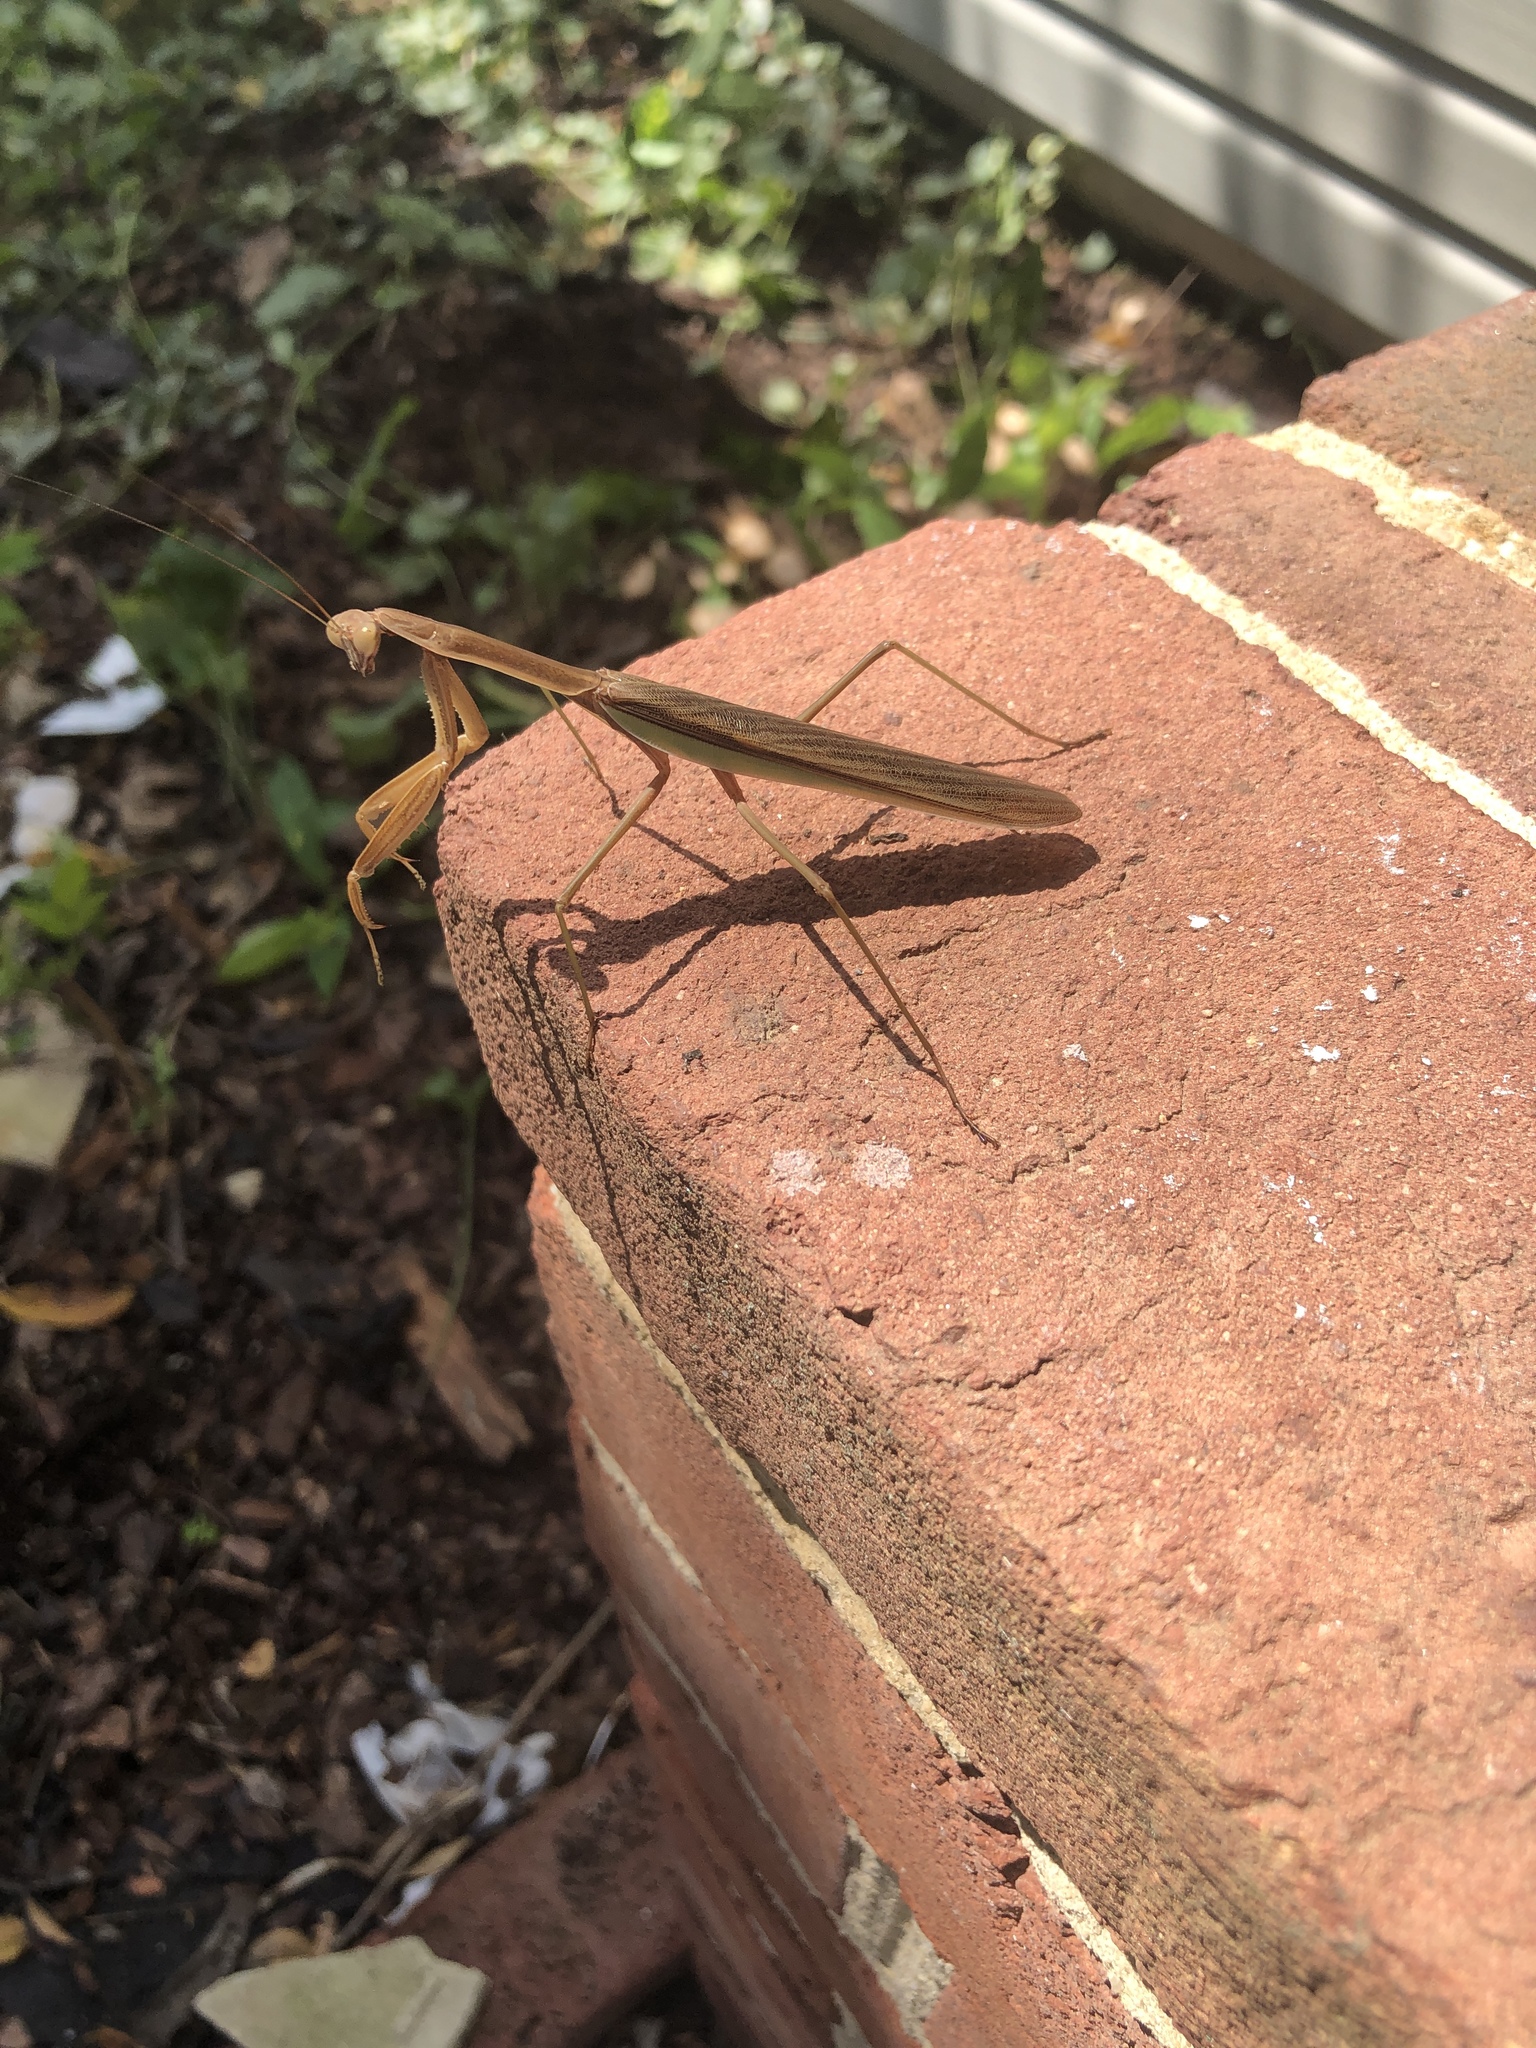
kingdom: Animalia
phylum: Arthropoda
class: Insecta
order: Mantodea
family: Mantidae
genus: Tenodera
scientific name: Tenodera angustipennis
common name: Asian mantis
